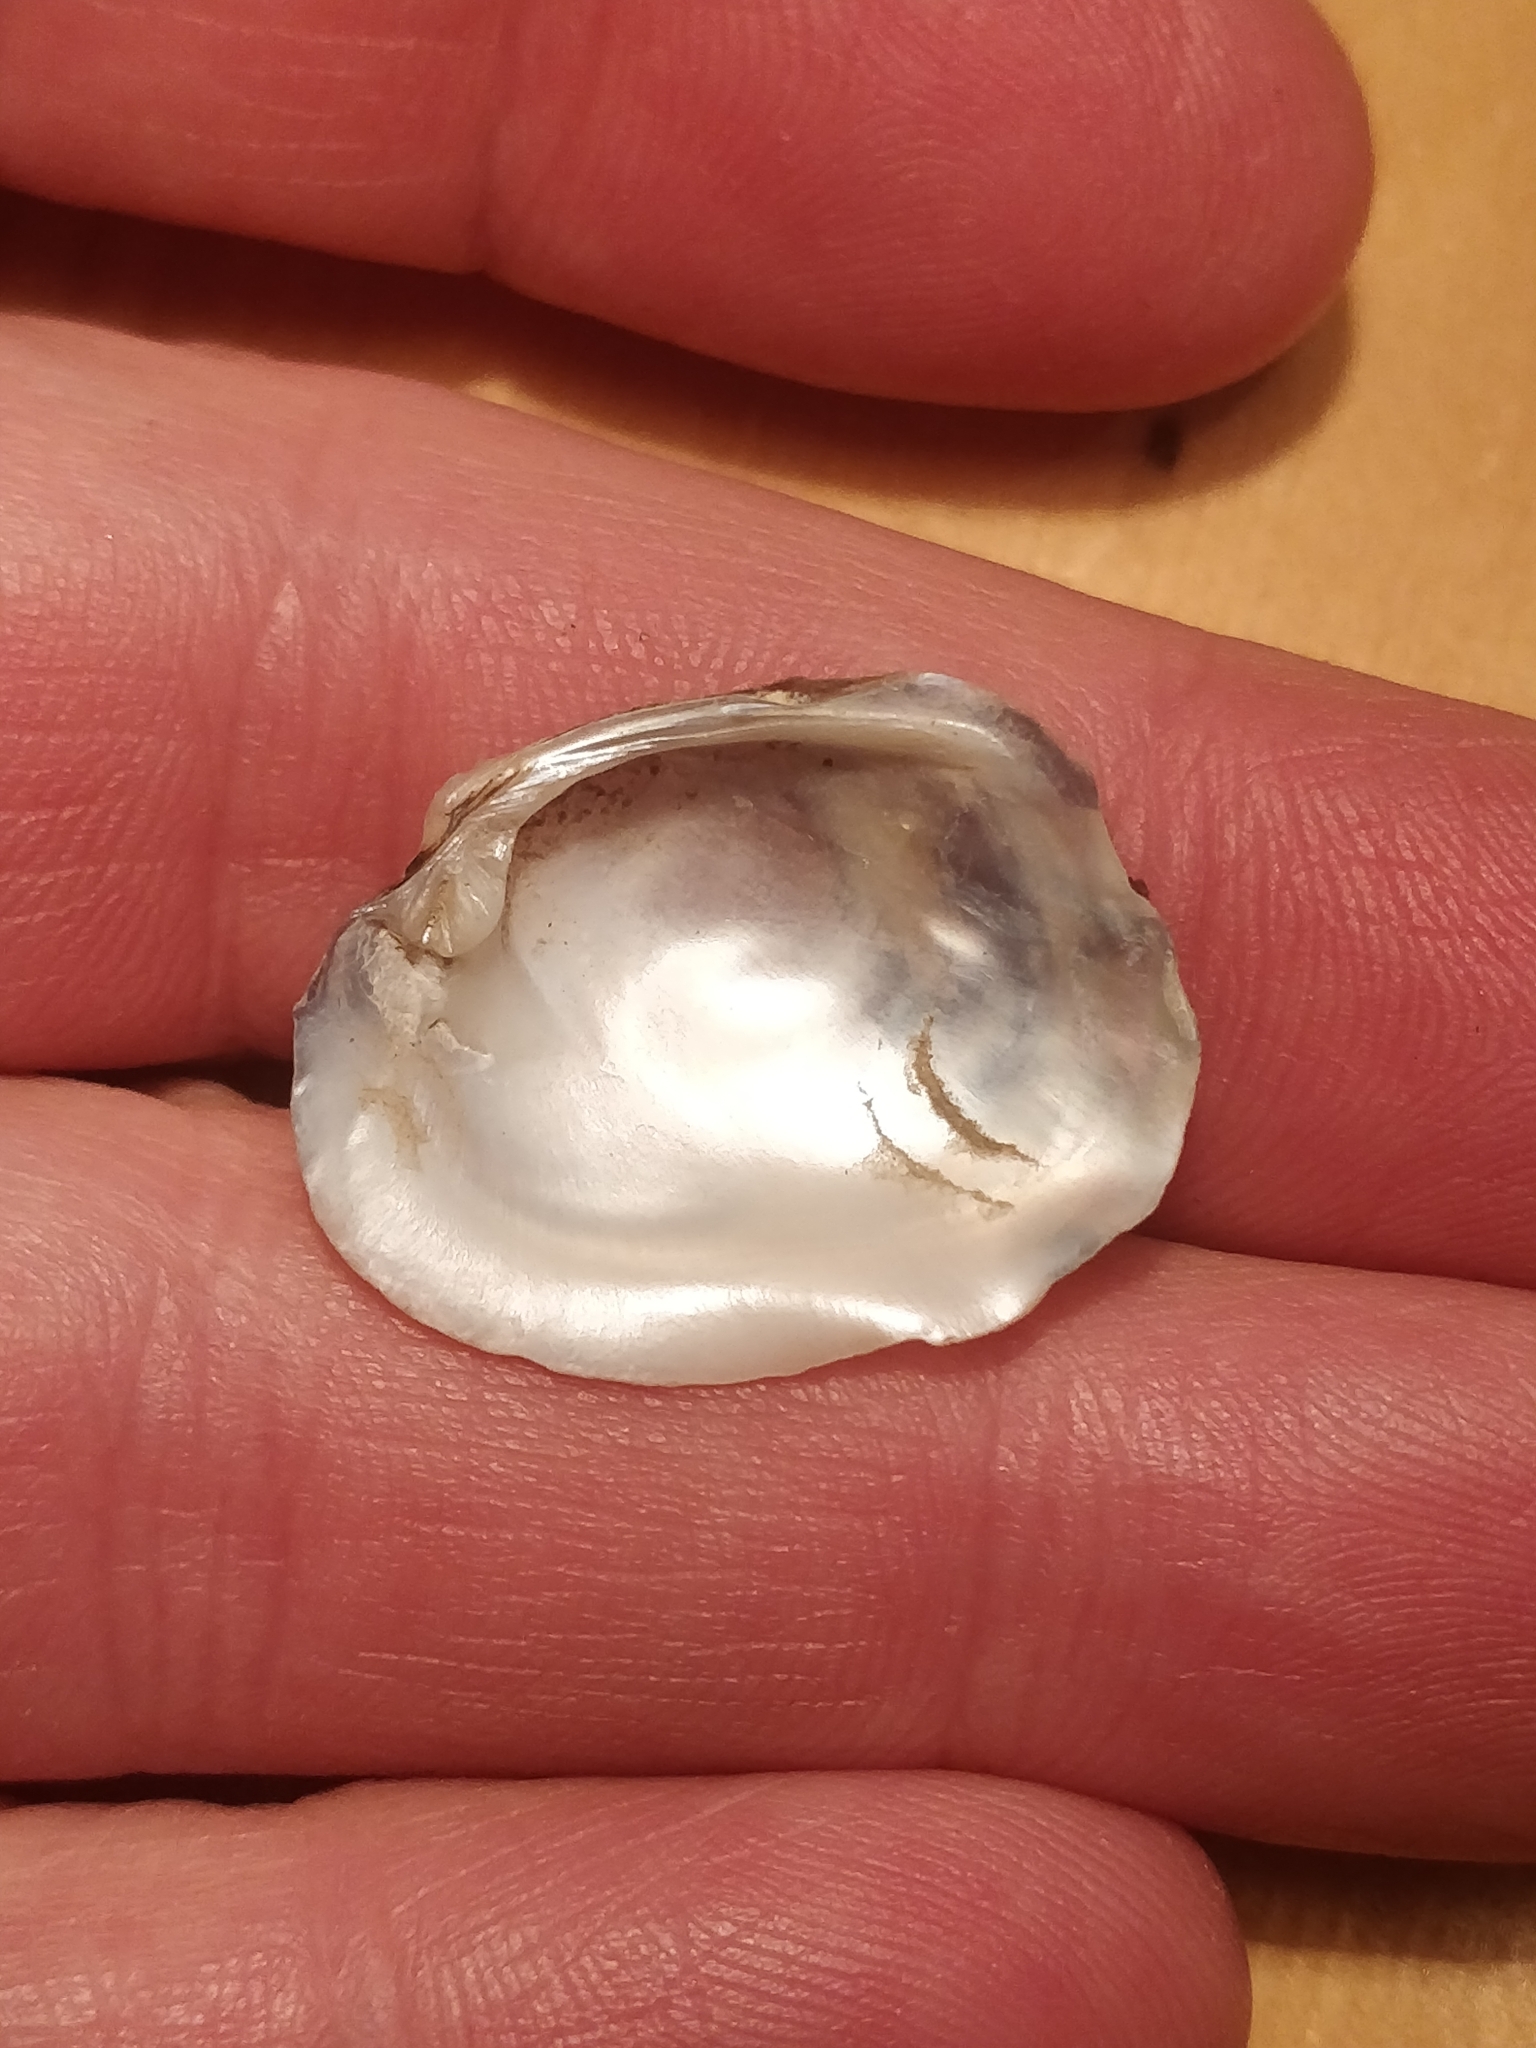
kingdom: Animalia
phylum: Mollusca
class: Bivalvia
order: Unionida
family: Unionidae
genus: Amblema
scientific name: Amblema plicata
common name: Threeridge
